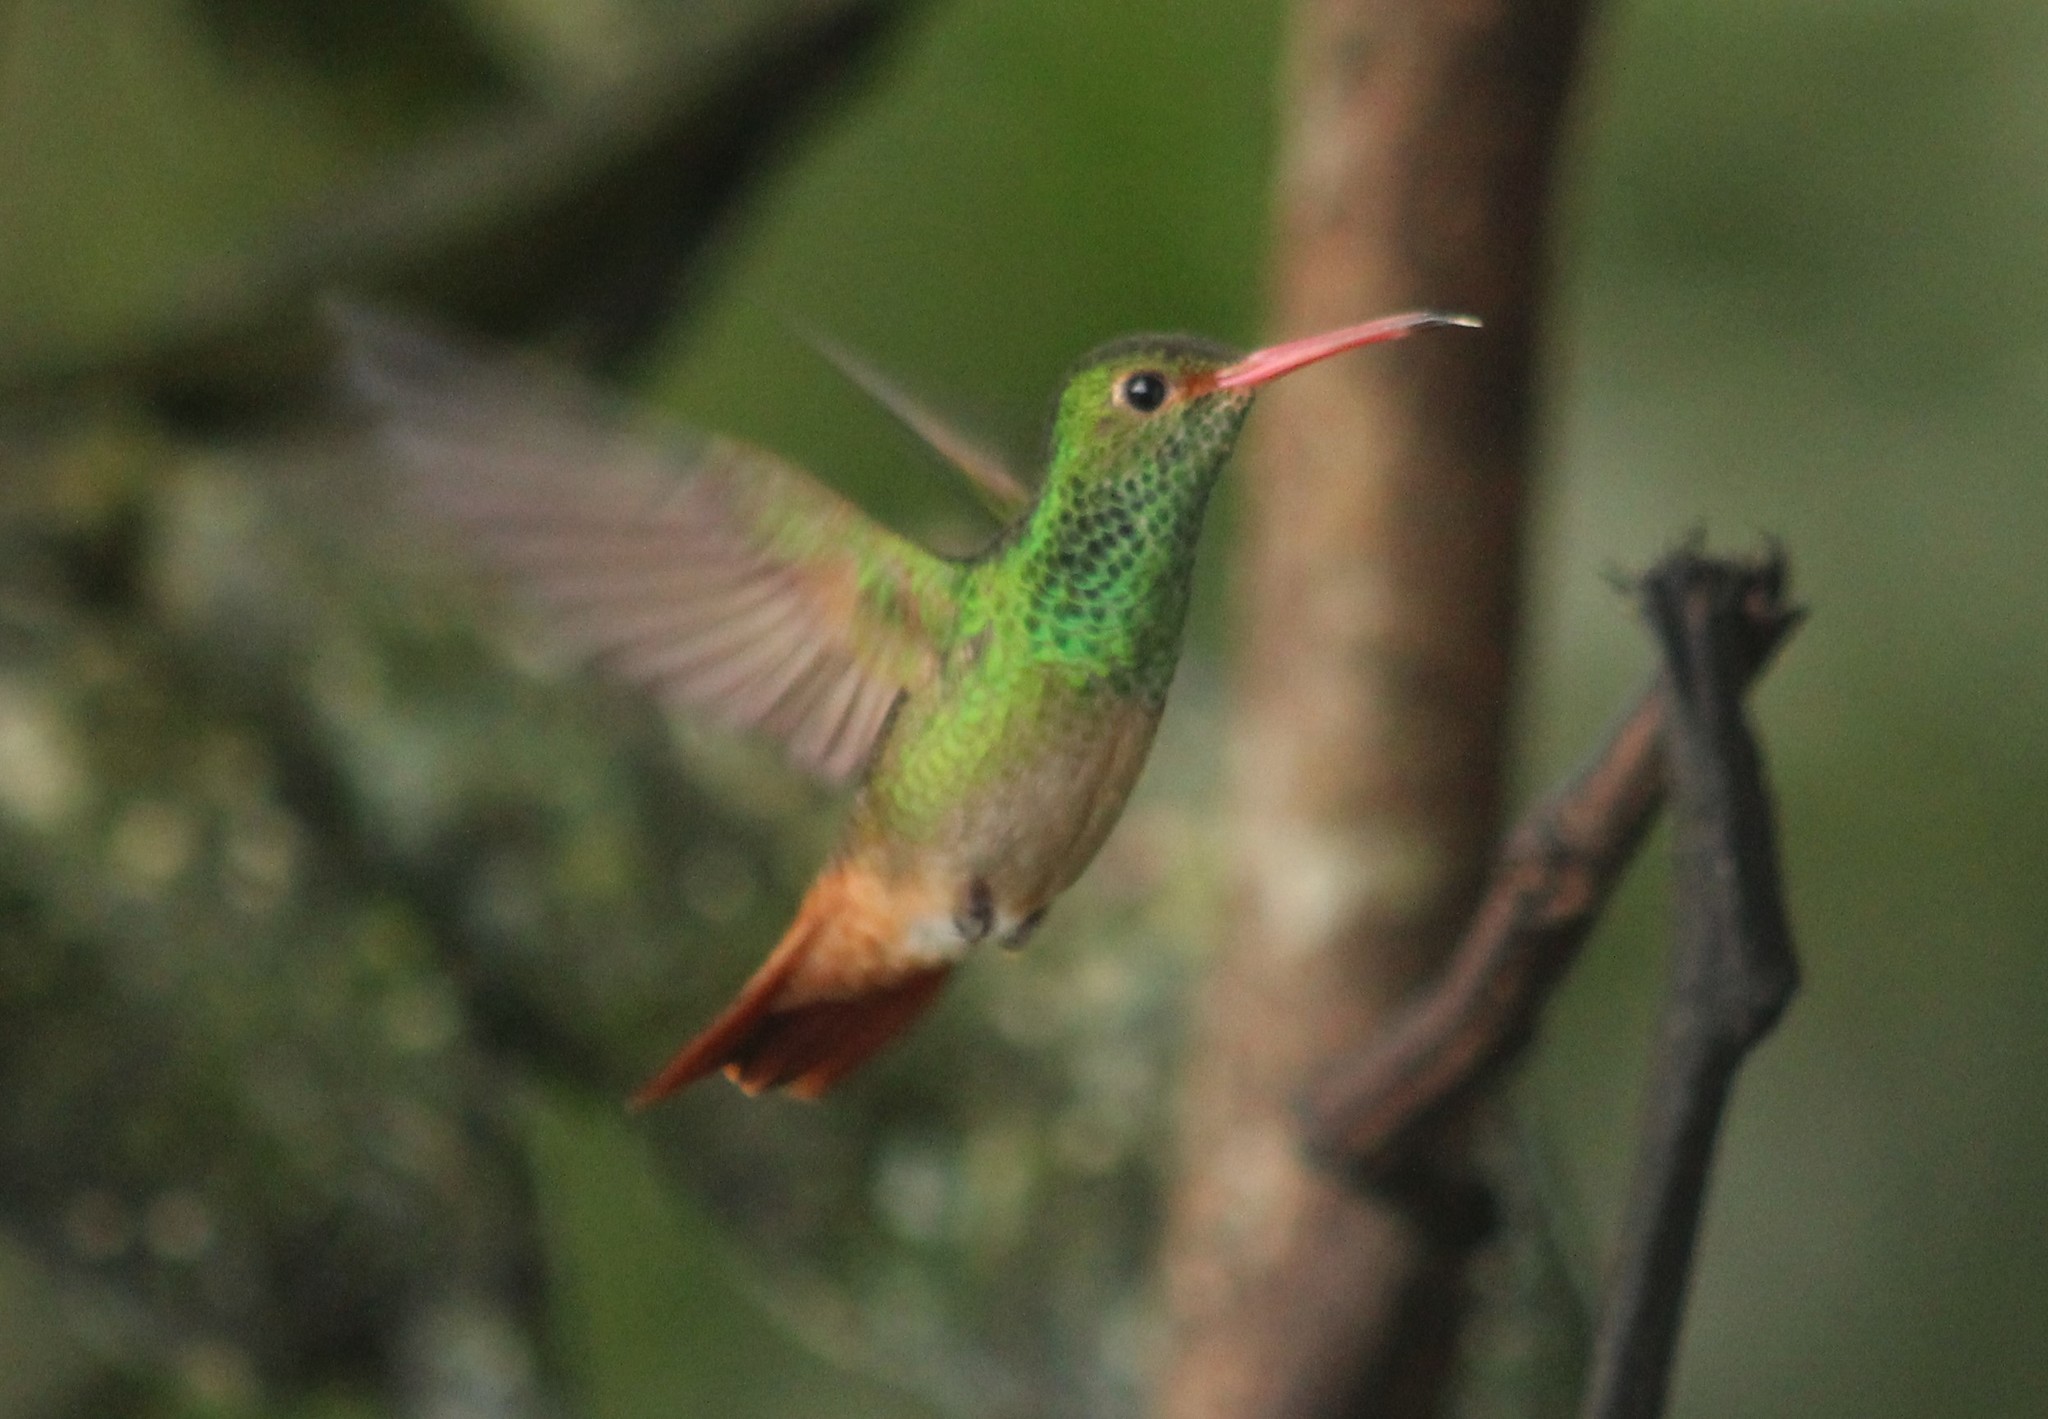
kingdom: Animalia
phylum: Chordata
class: Aves
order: Apodiformes
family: Trochilidae
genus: Amazilia
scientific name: Amazilia tzacatl
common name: Rufous-tailed hummingbird
